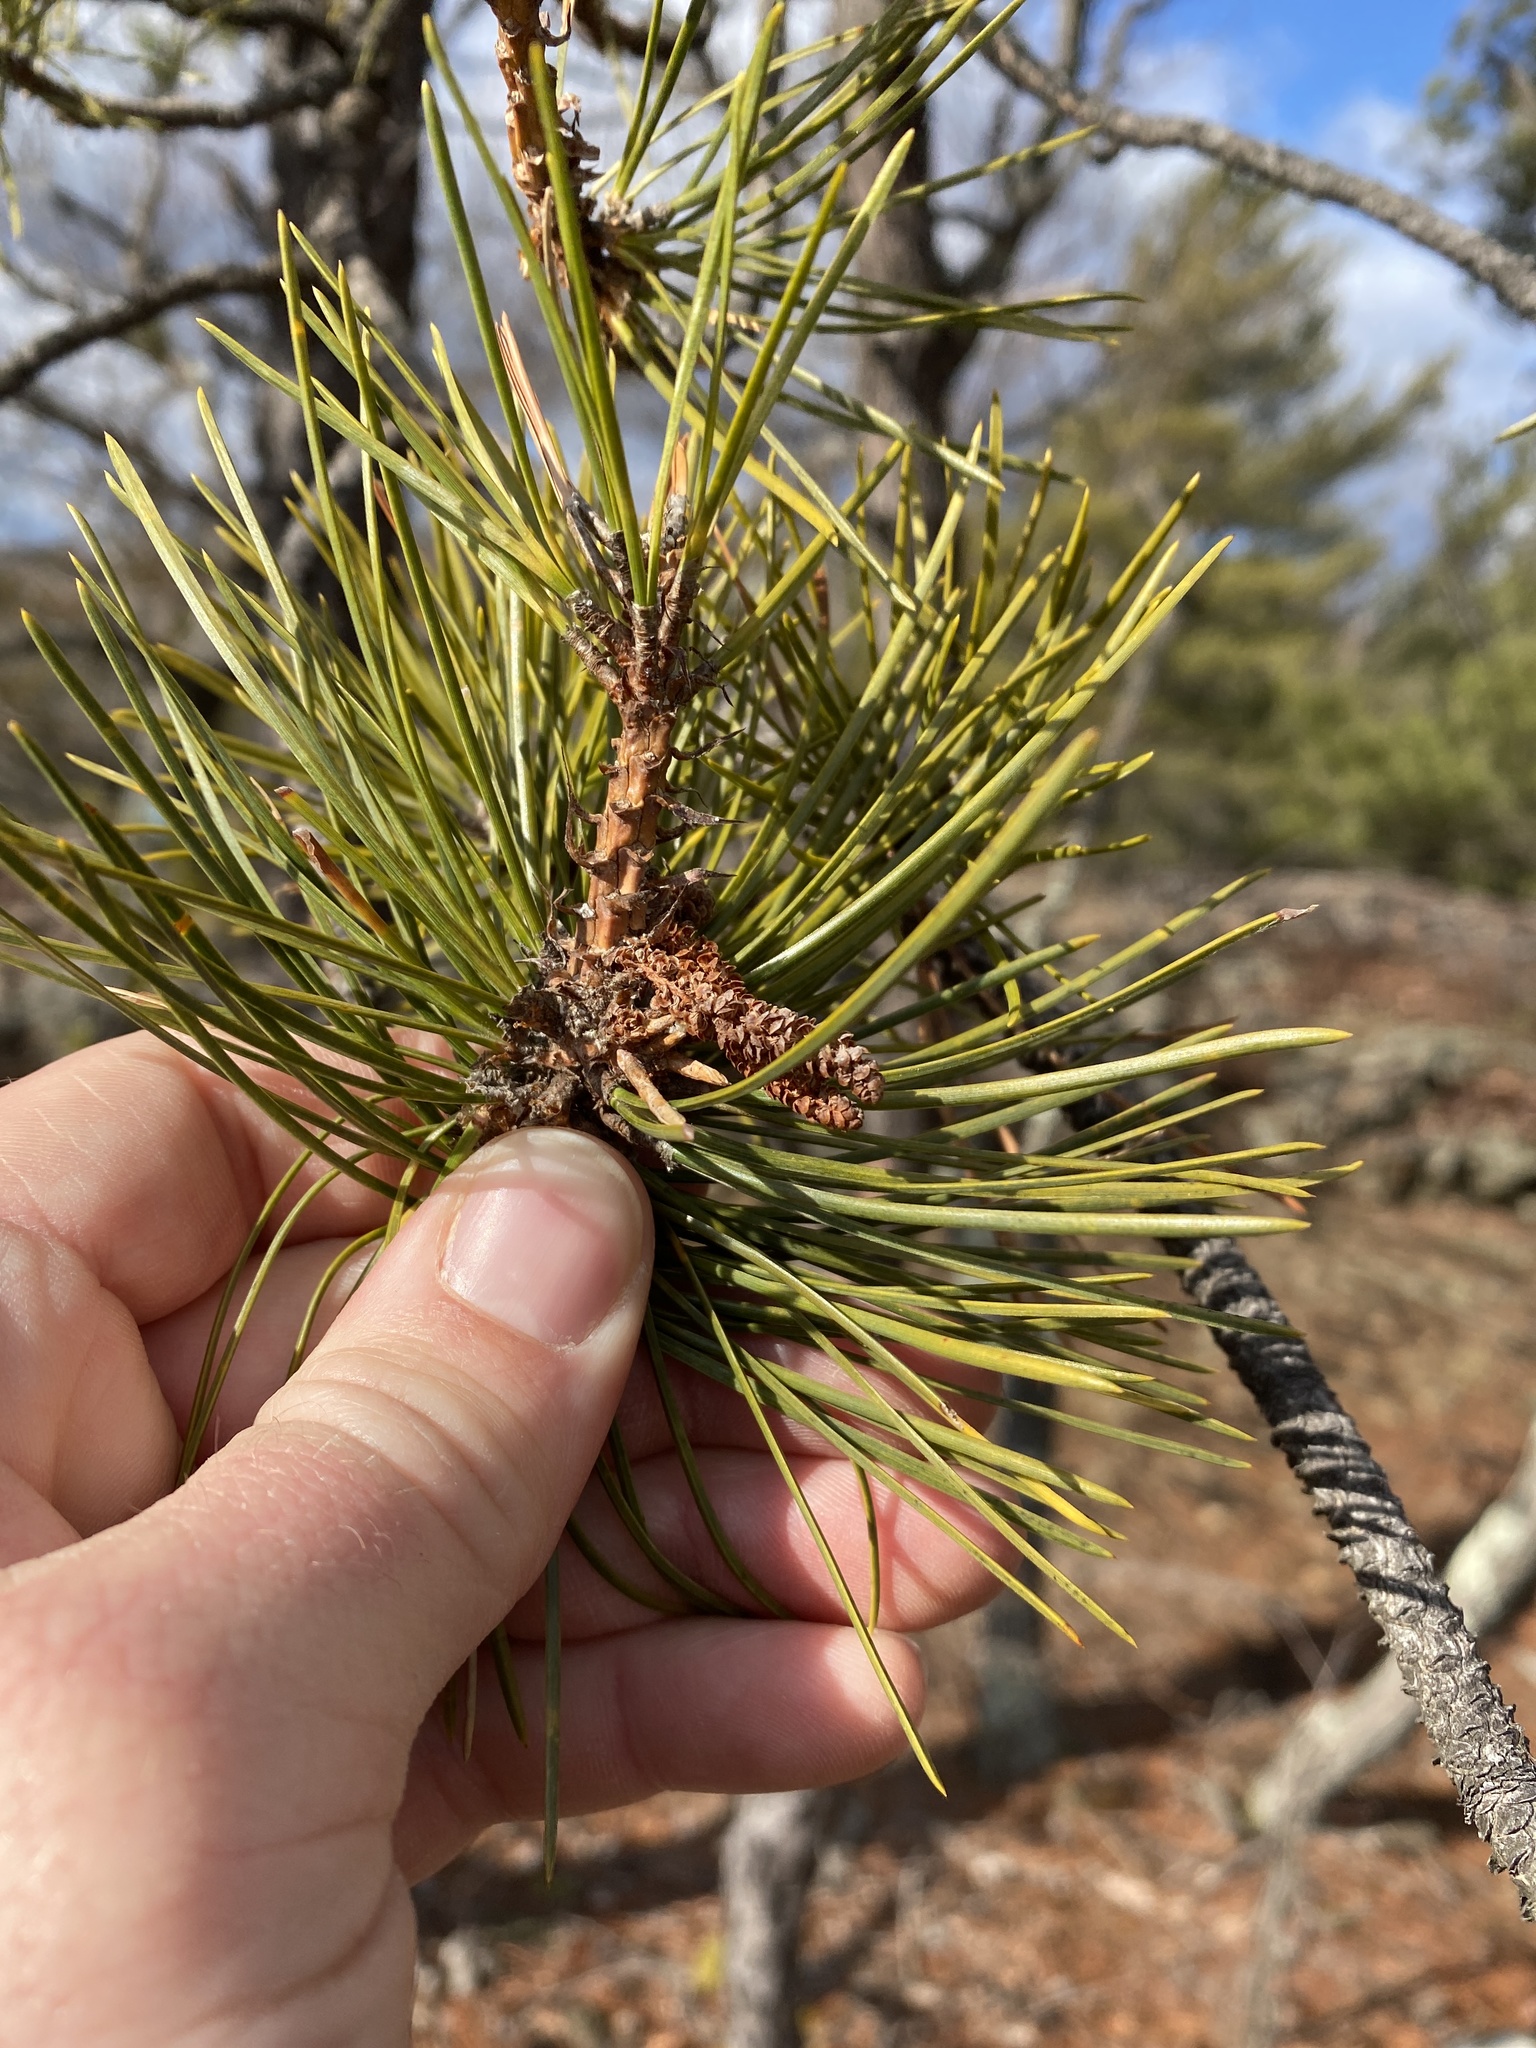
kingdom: Plantae
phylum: Tracheophyta
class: Pinopsida
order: Pinales
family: Pinaceae
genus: Pinus
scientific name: Pinus rigida
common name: Pitch pine
